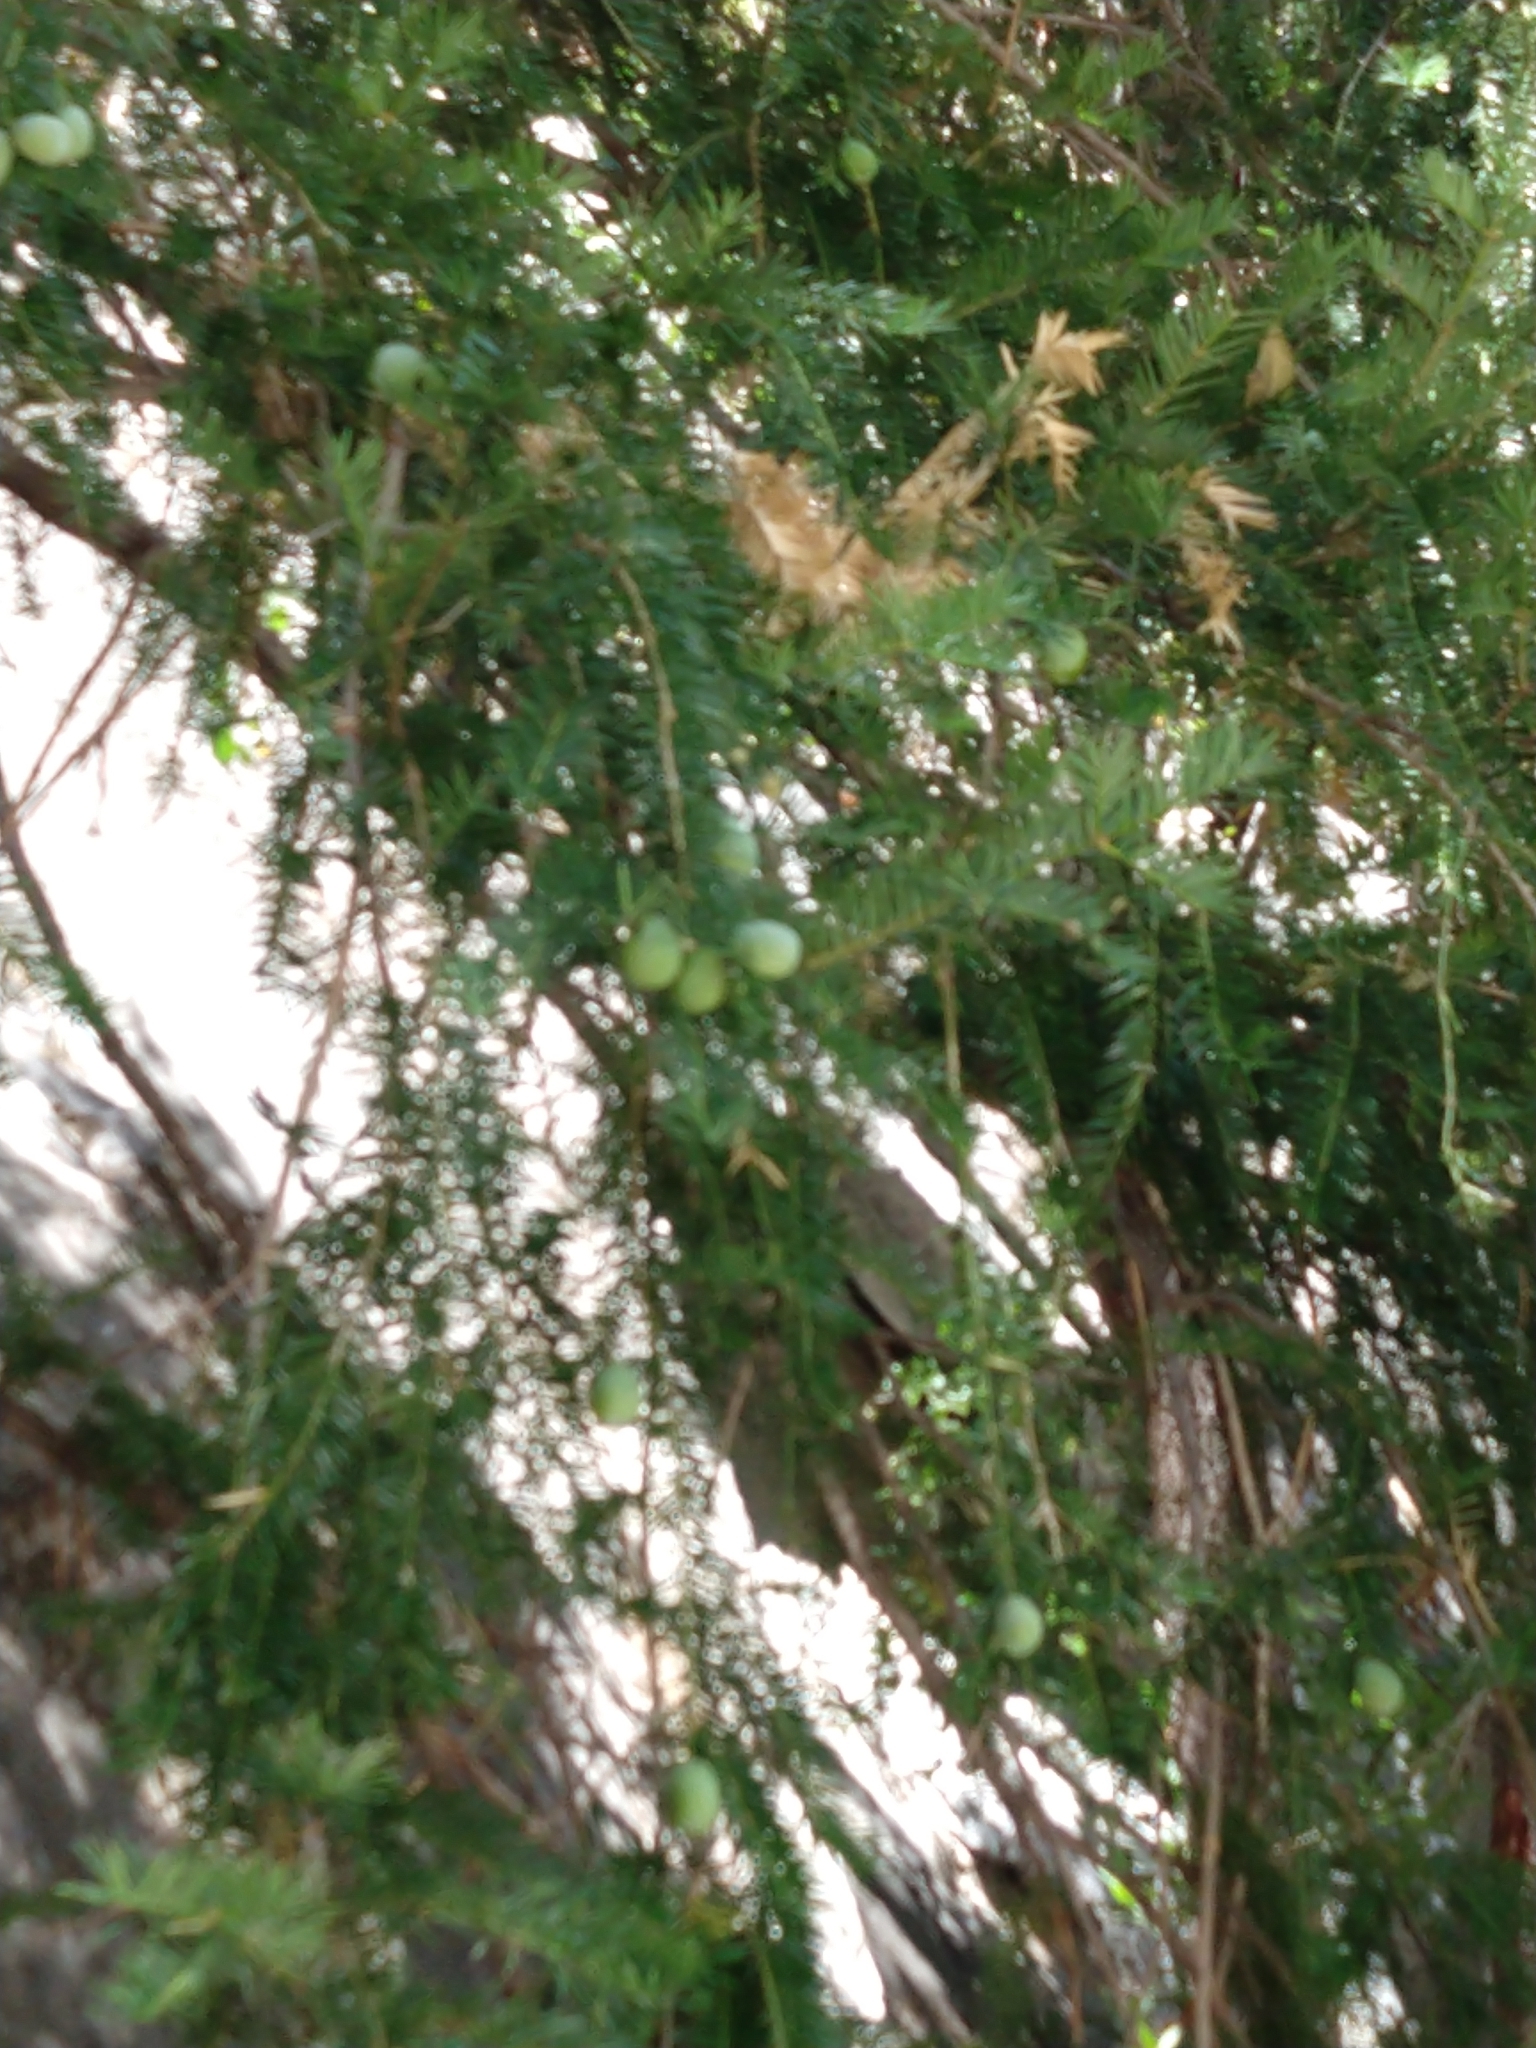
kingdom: Plantae
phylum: Tracheophyta
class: Pinopsida
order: Pinales
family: Taxaceae
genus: Torreya
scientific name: Torreya californica
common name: California torreya
